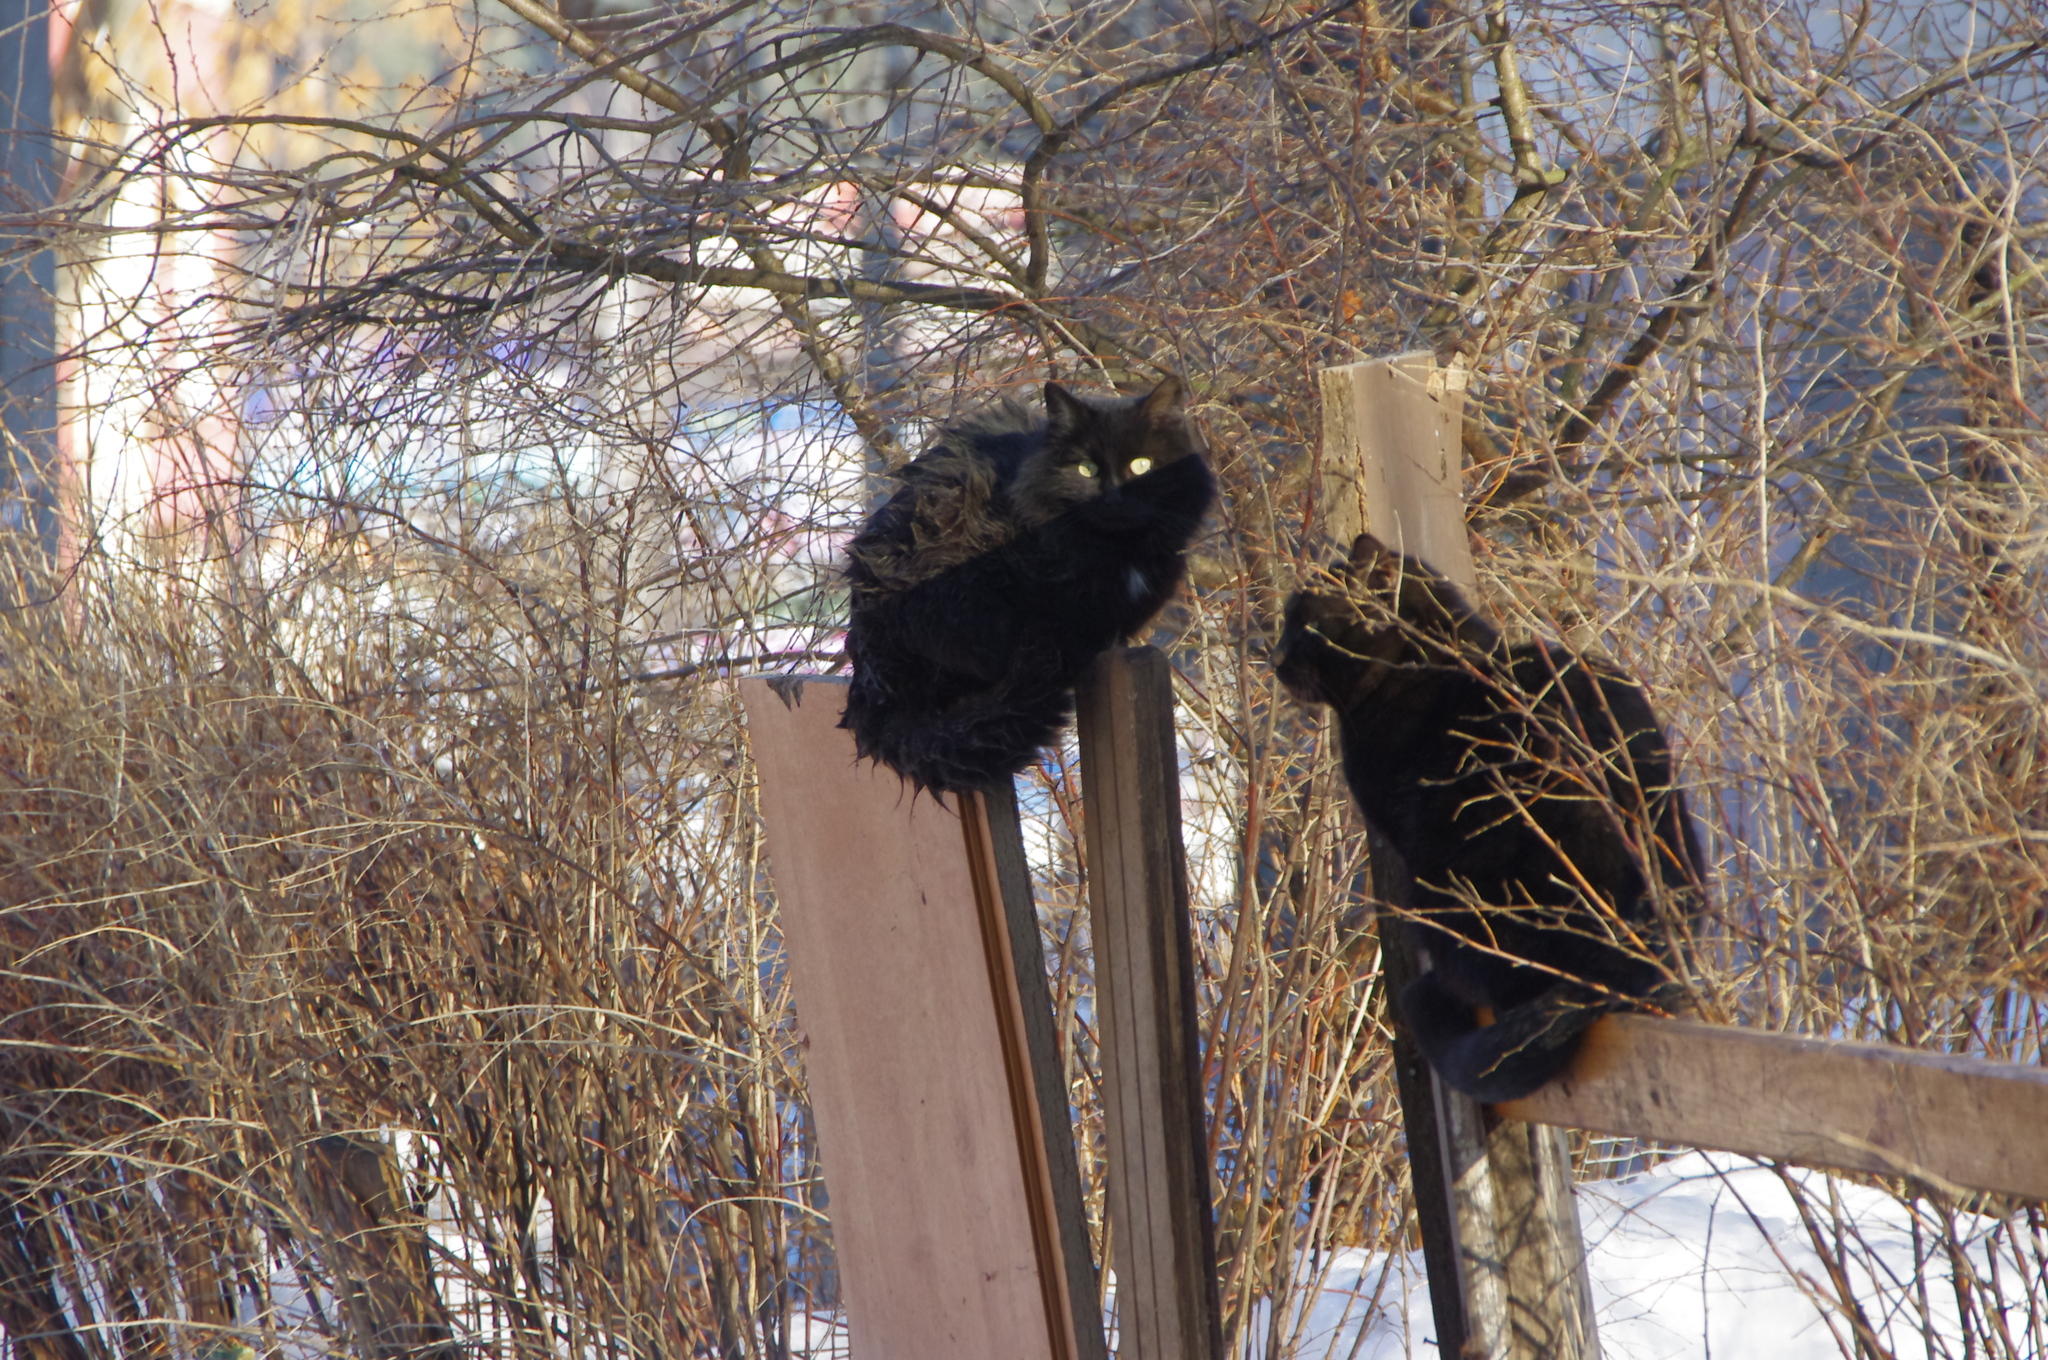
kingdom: Animalia
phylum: Chordata
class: Mammalia
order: Carnivora
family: Felidae
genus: Felis
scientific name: Felis catus
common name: Domestic cat
